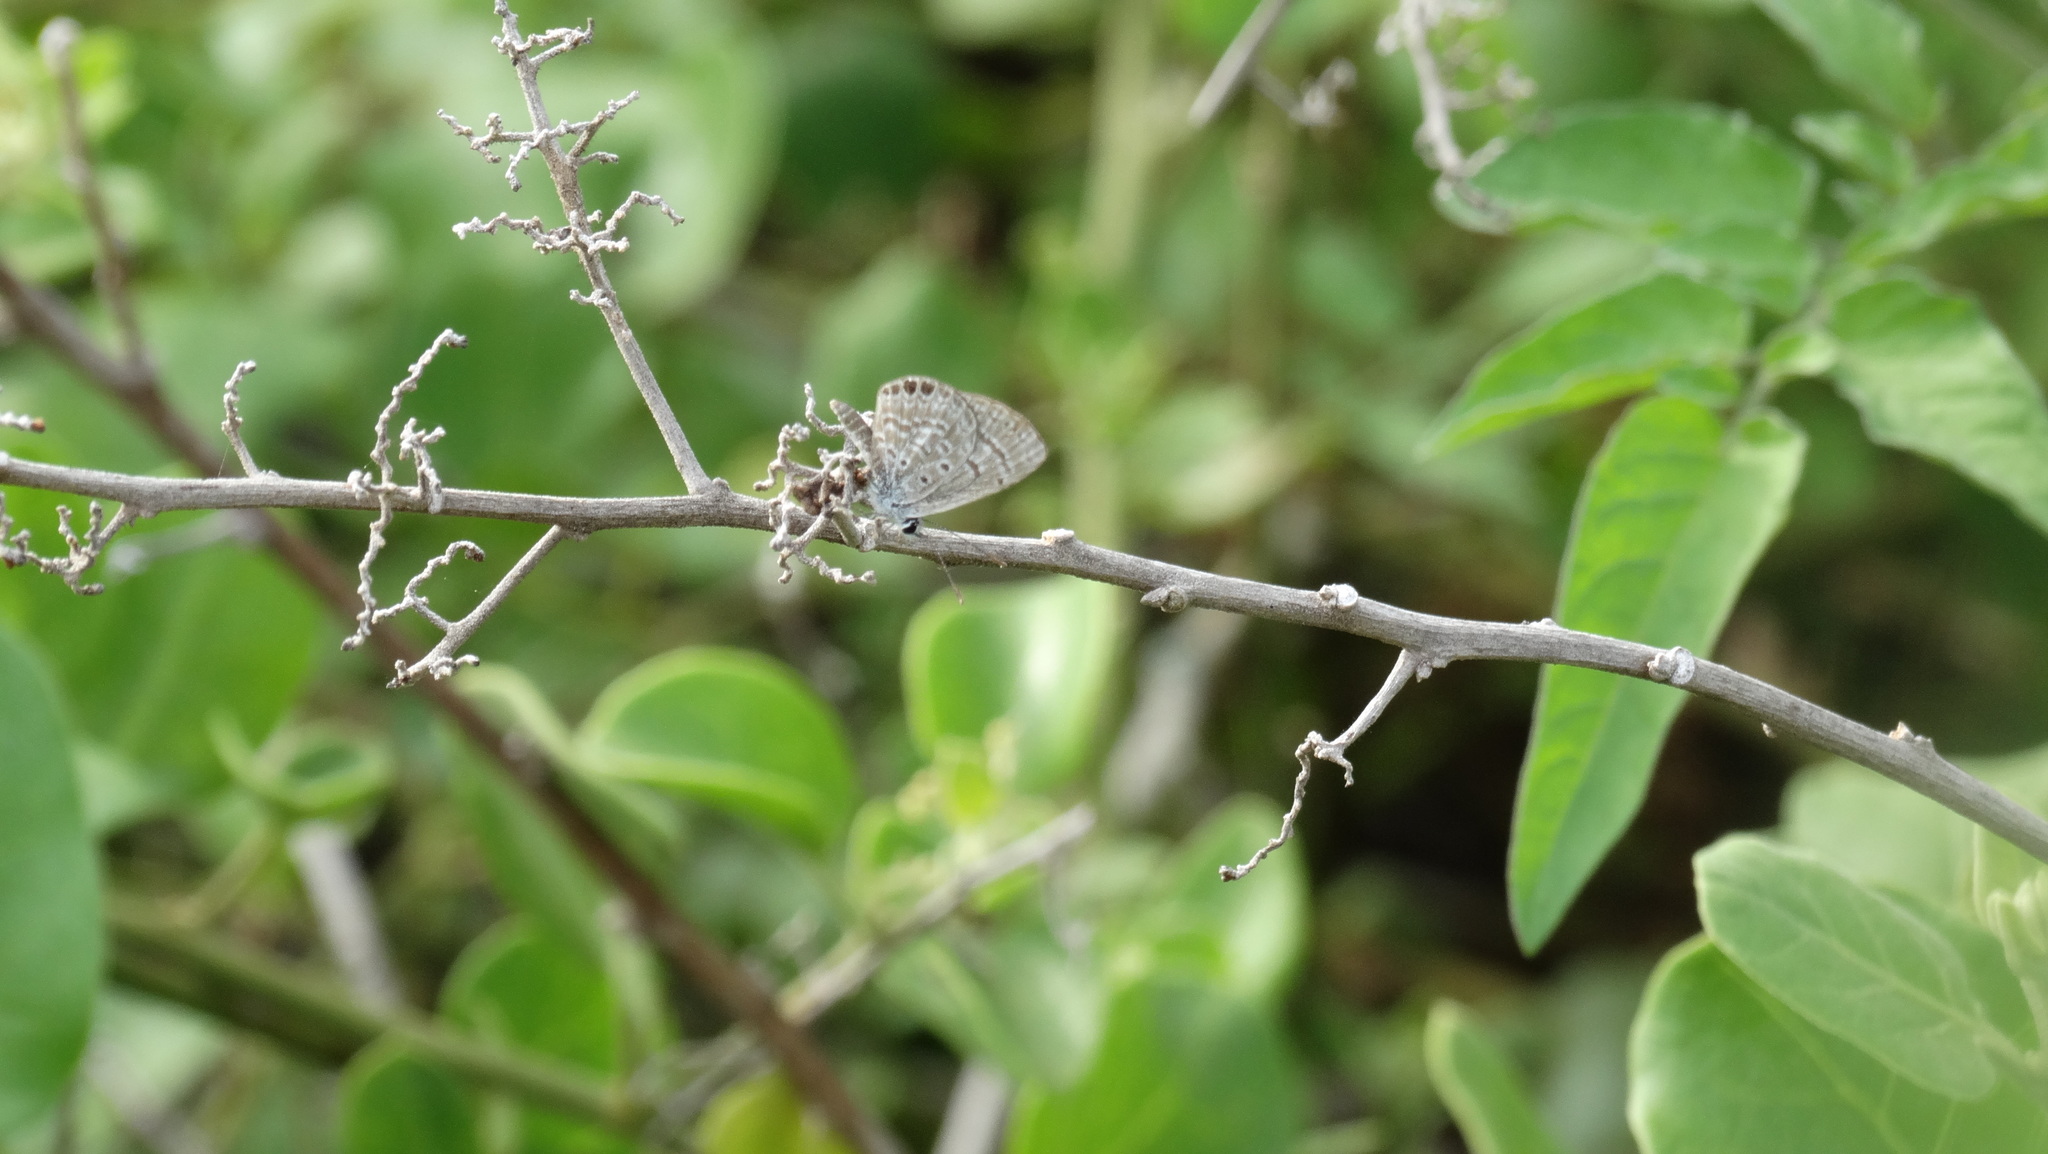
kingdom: Animalia
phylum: Arthropoda
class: Insecta
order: Lepidoptera
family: Lycaenidae
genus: Hemiargus
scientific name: Hemiargus ramon
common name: Ramon blue
